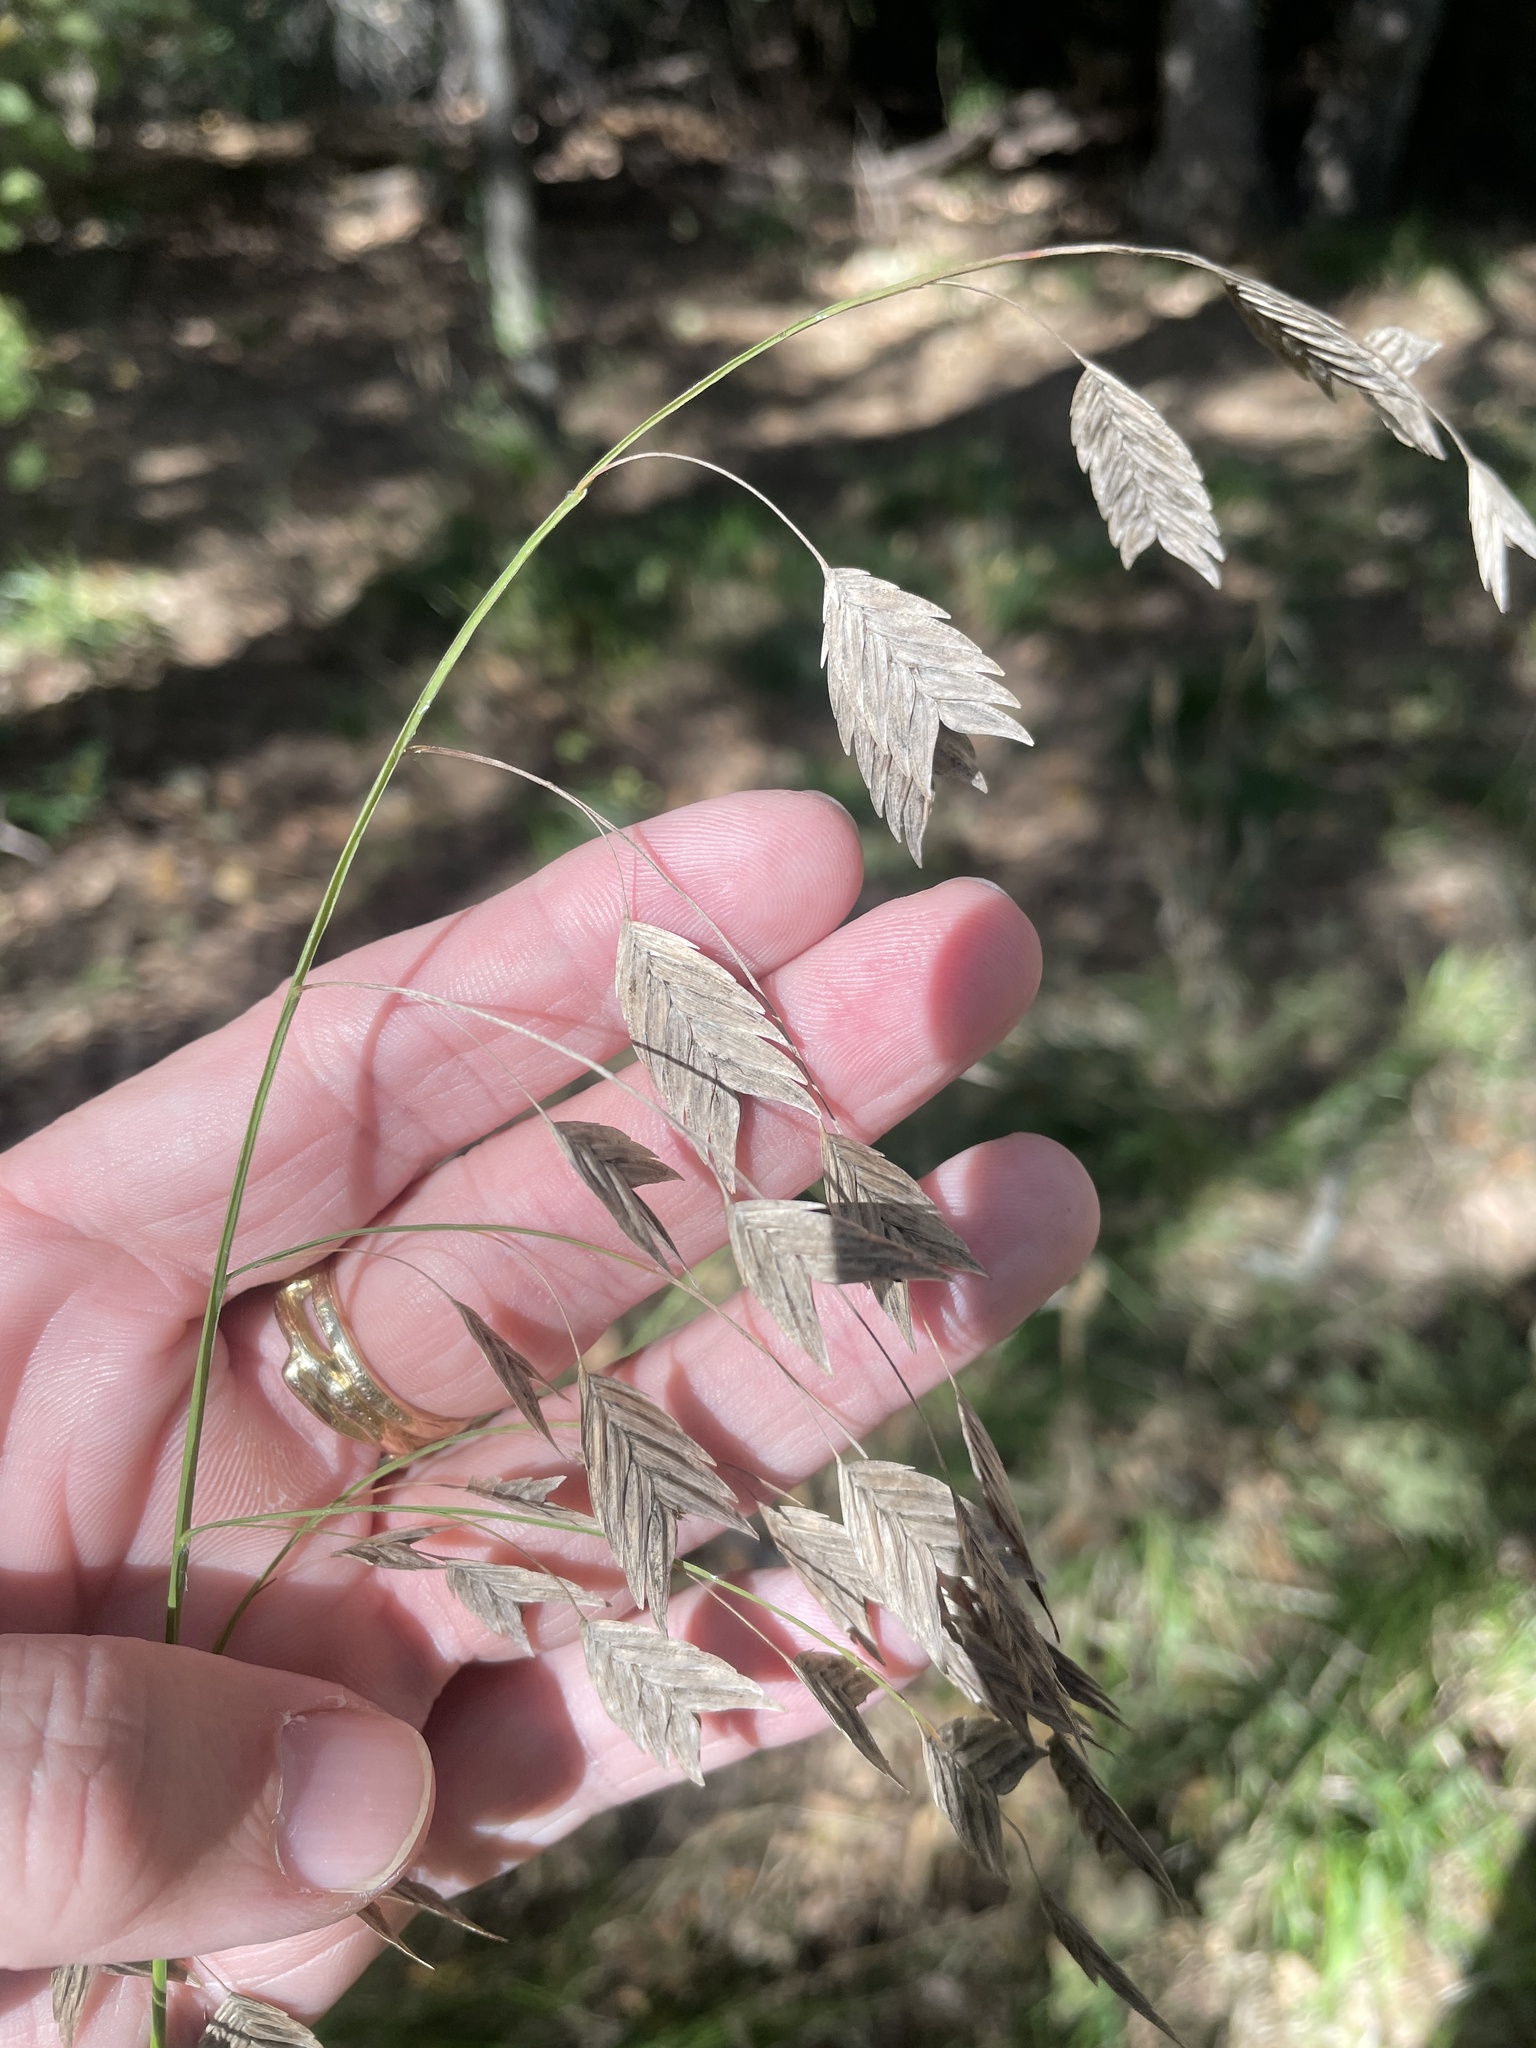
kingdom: Plantae
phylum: Tracheophyta
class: Liliopsida
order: Poales
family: Poaceae
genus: Chasmanthium
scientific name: Chasmanthium latifolium
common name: Broad-leaved chasmanthium
